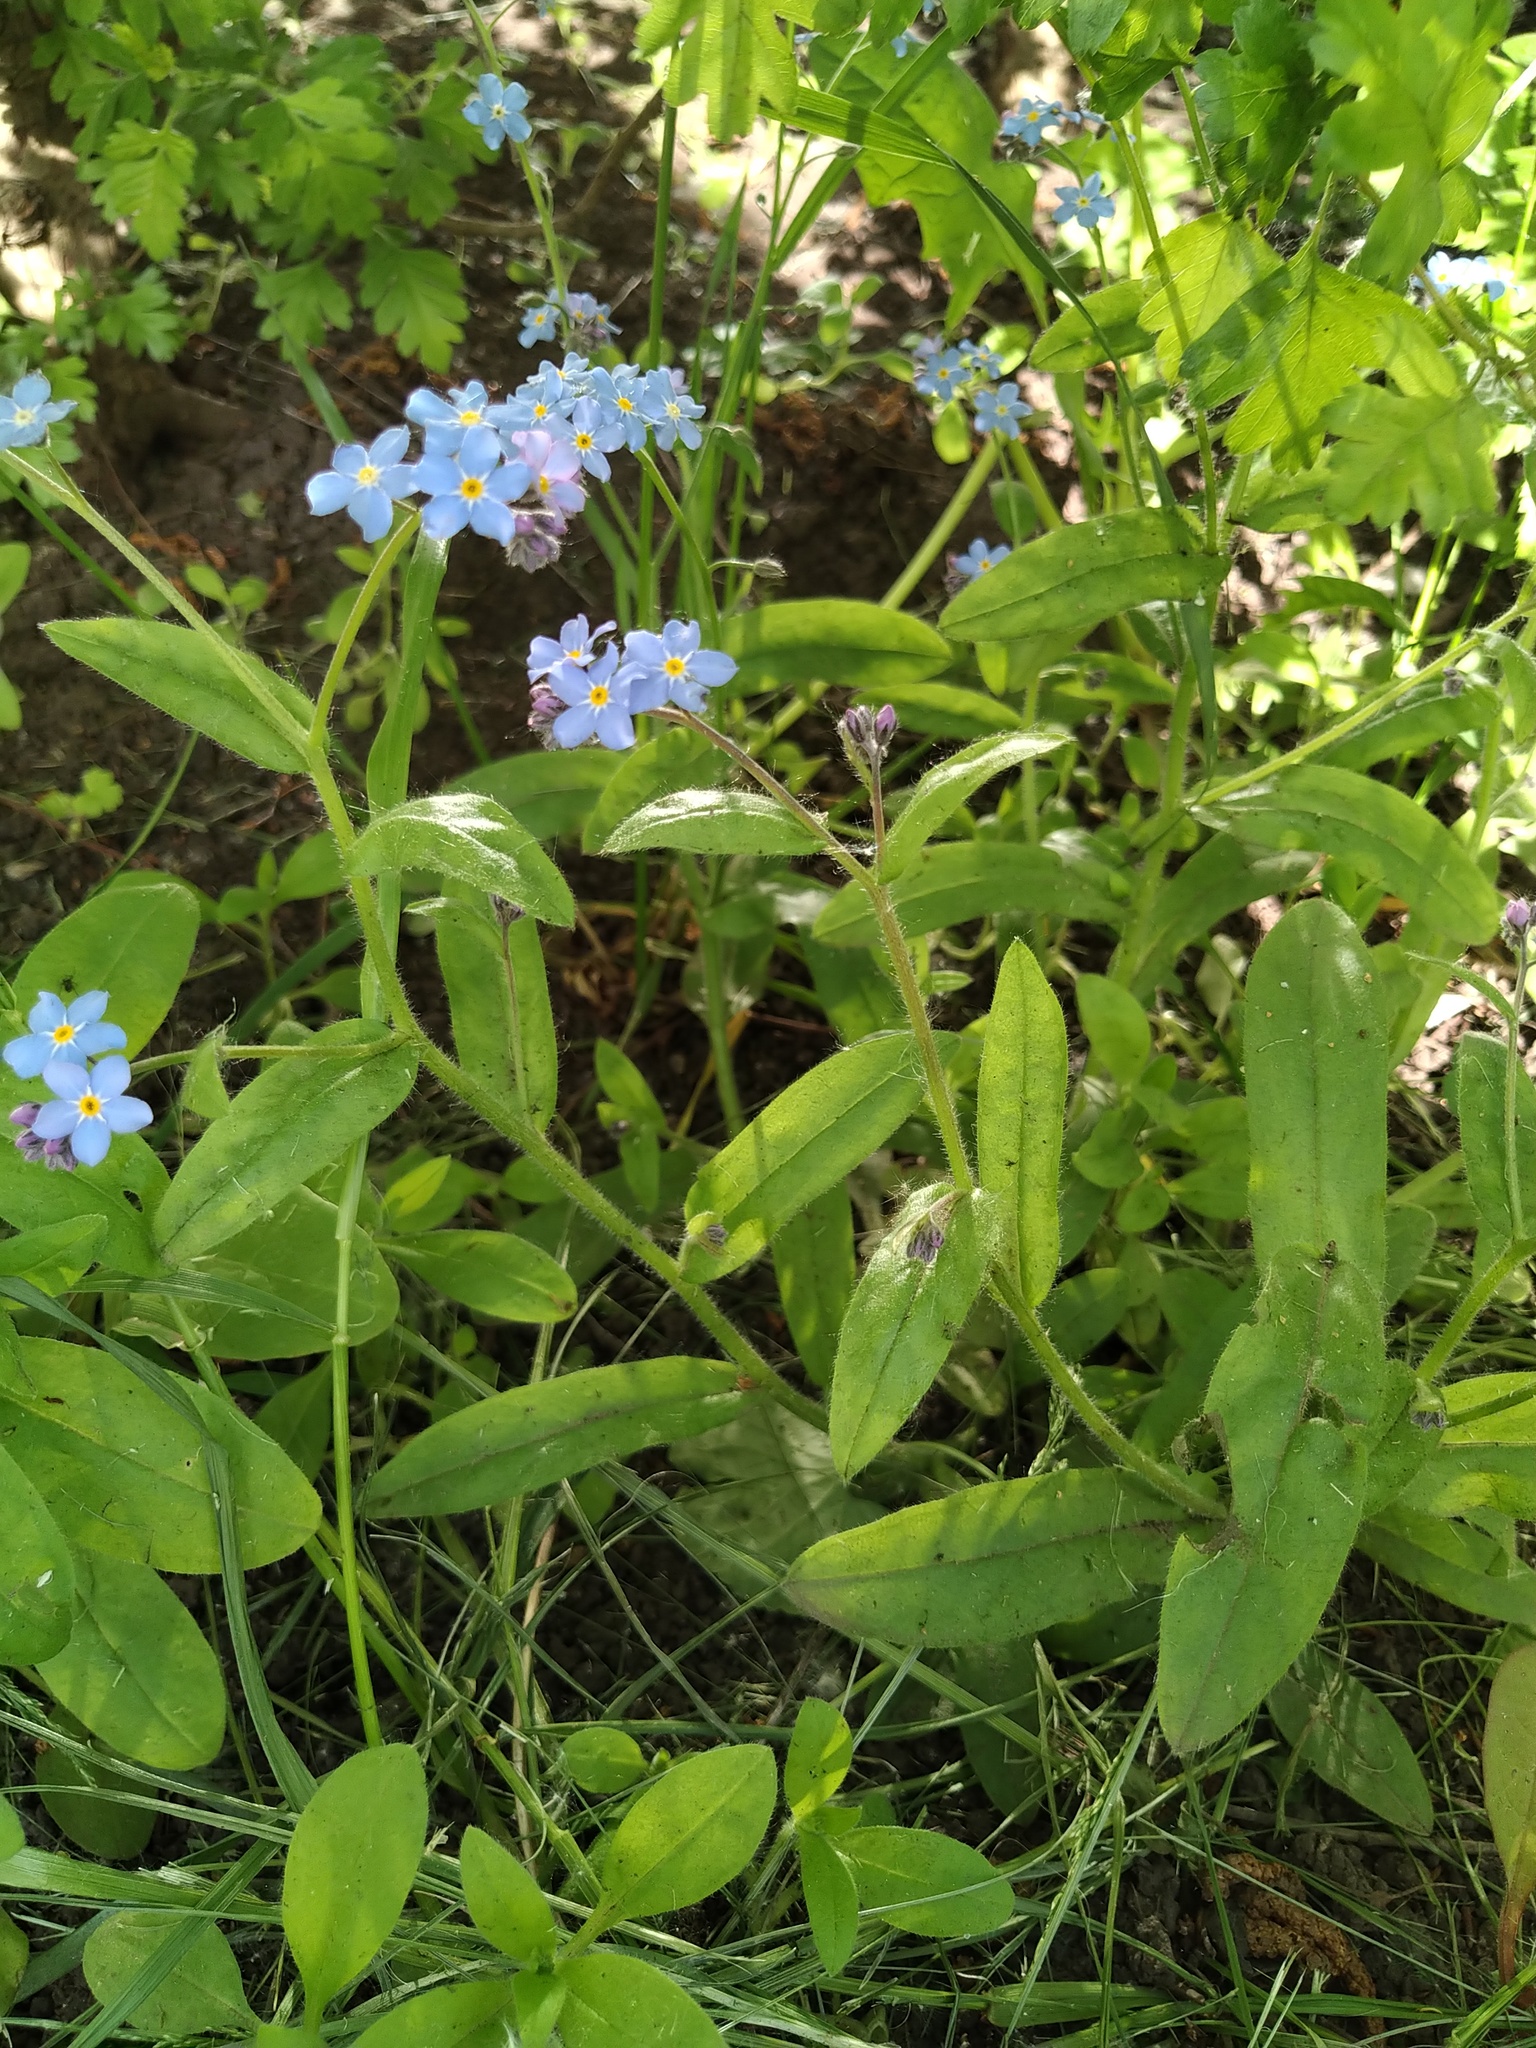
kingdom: Plantae
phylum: Tracheophyta
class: Magnoliopsida
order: Boraginales
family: Boraginaceae
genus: Myosotis
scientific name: Myosotis sylvatica
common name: Wood forget-me-not
